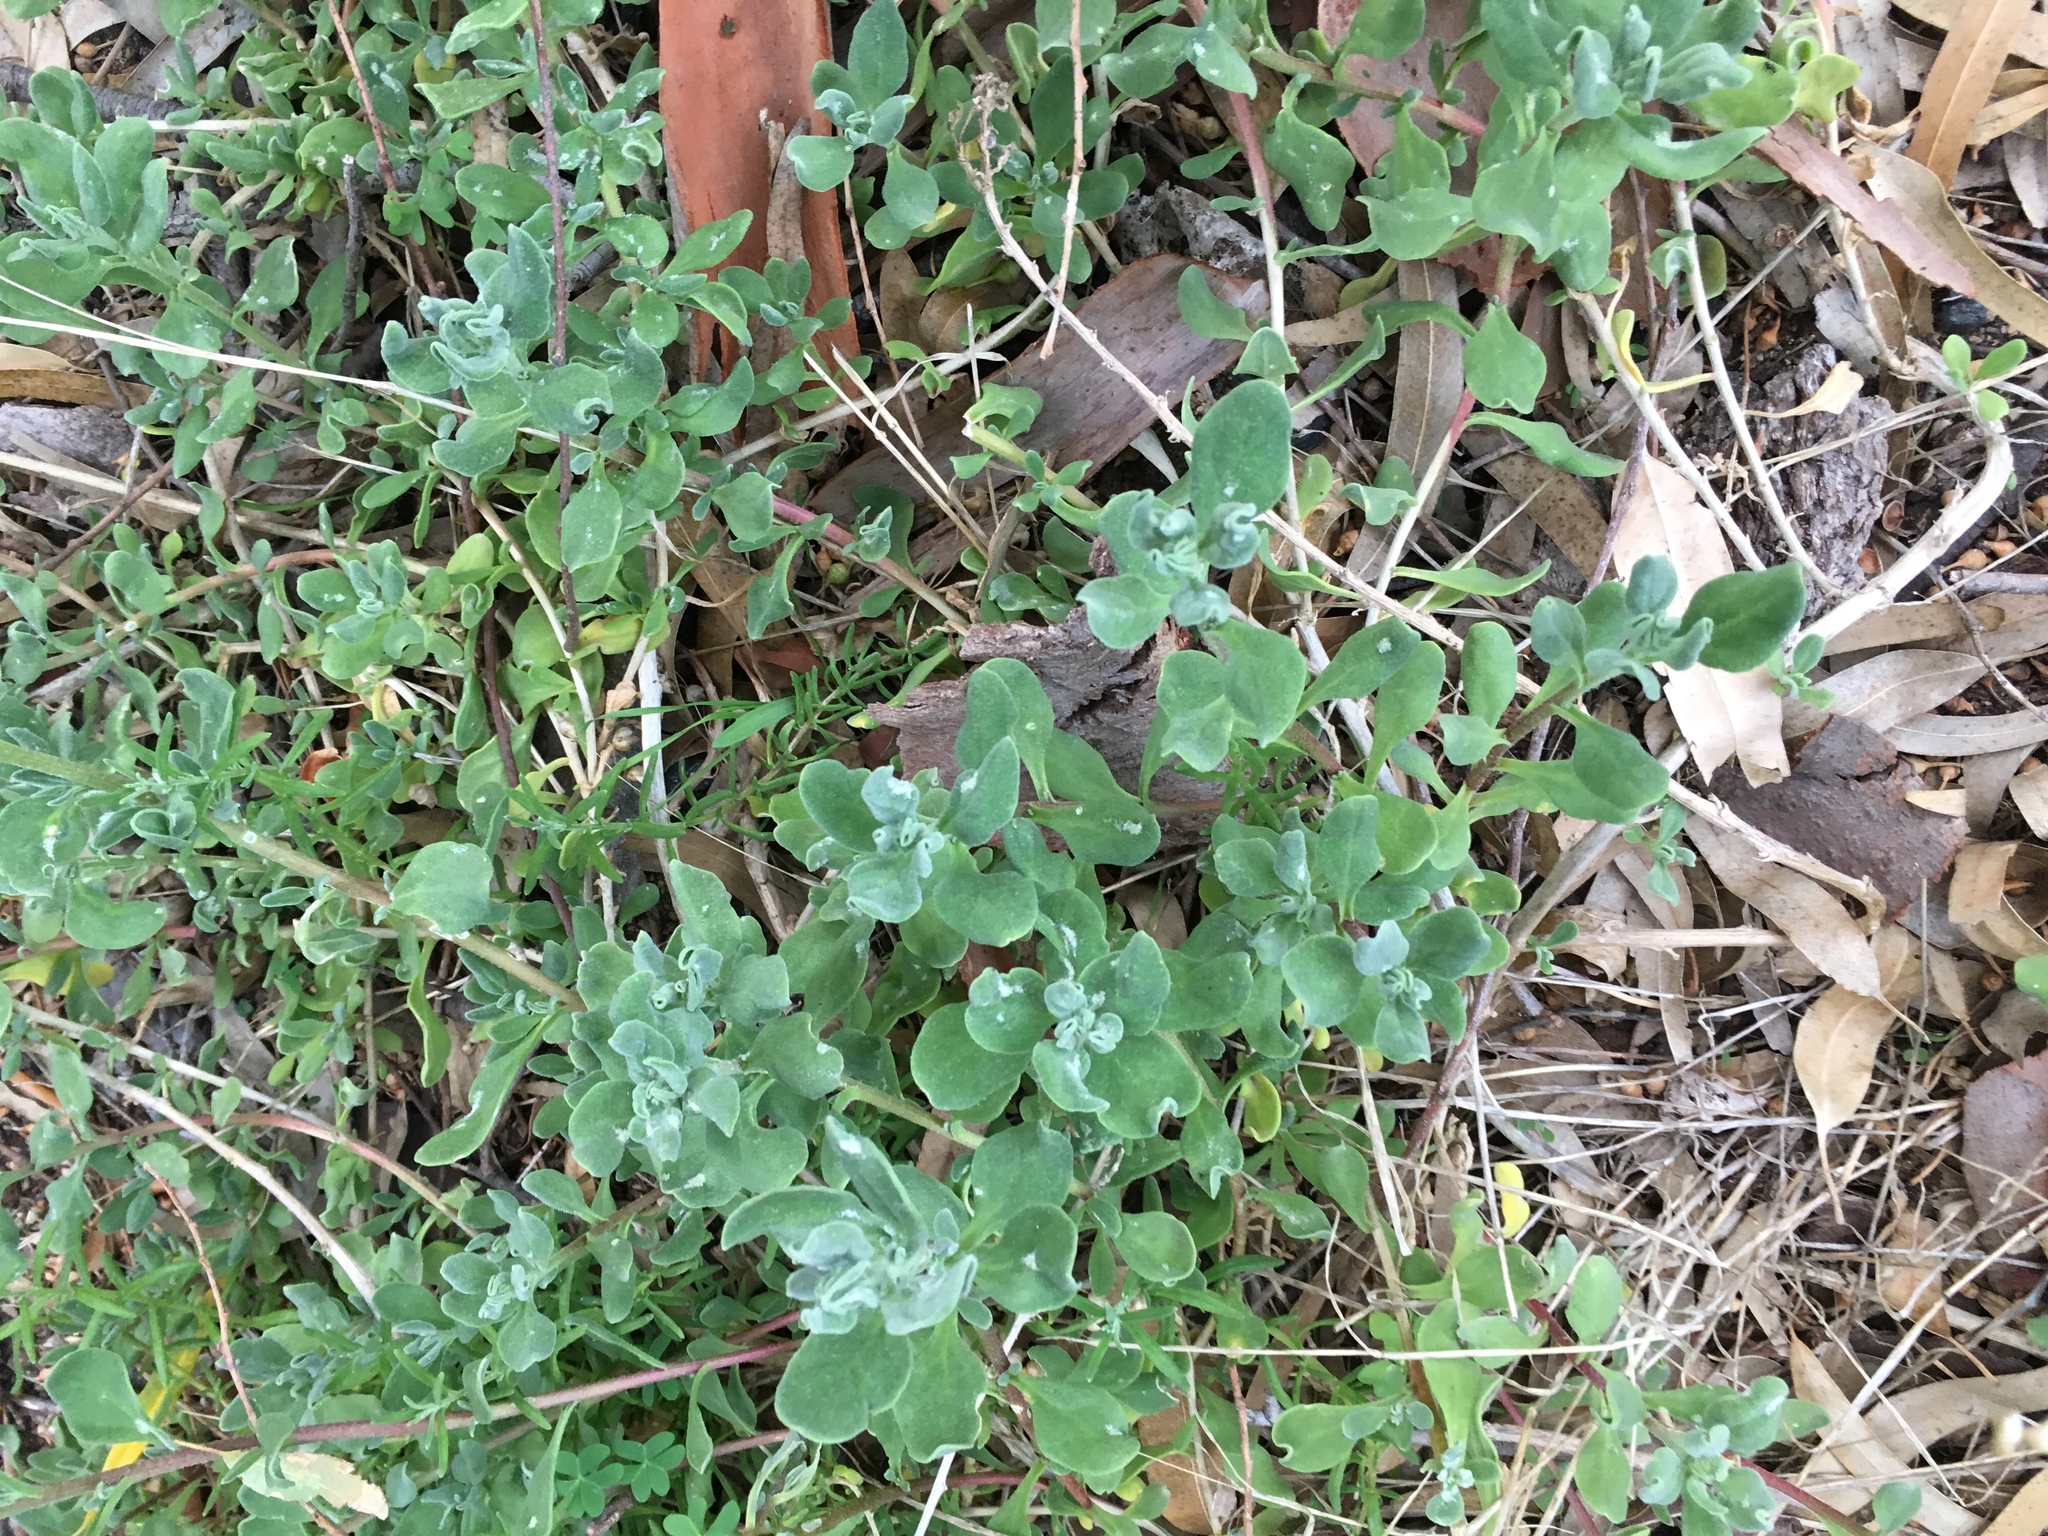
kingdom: Plantae
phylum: Tracheophyta
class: Magnoliopsida
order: Caryophyllales
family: Aizoaceae
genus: Tetragonia
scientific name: Tetragonia decumbens
